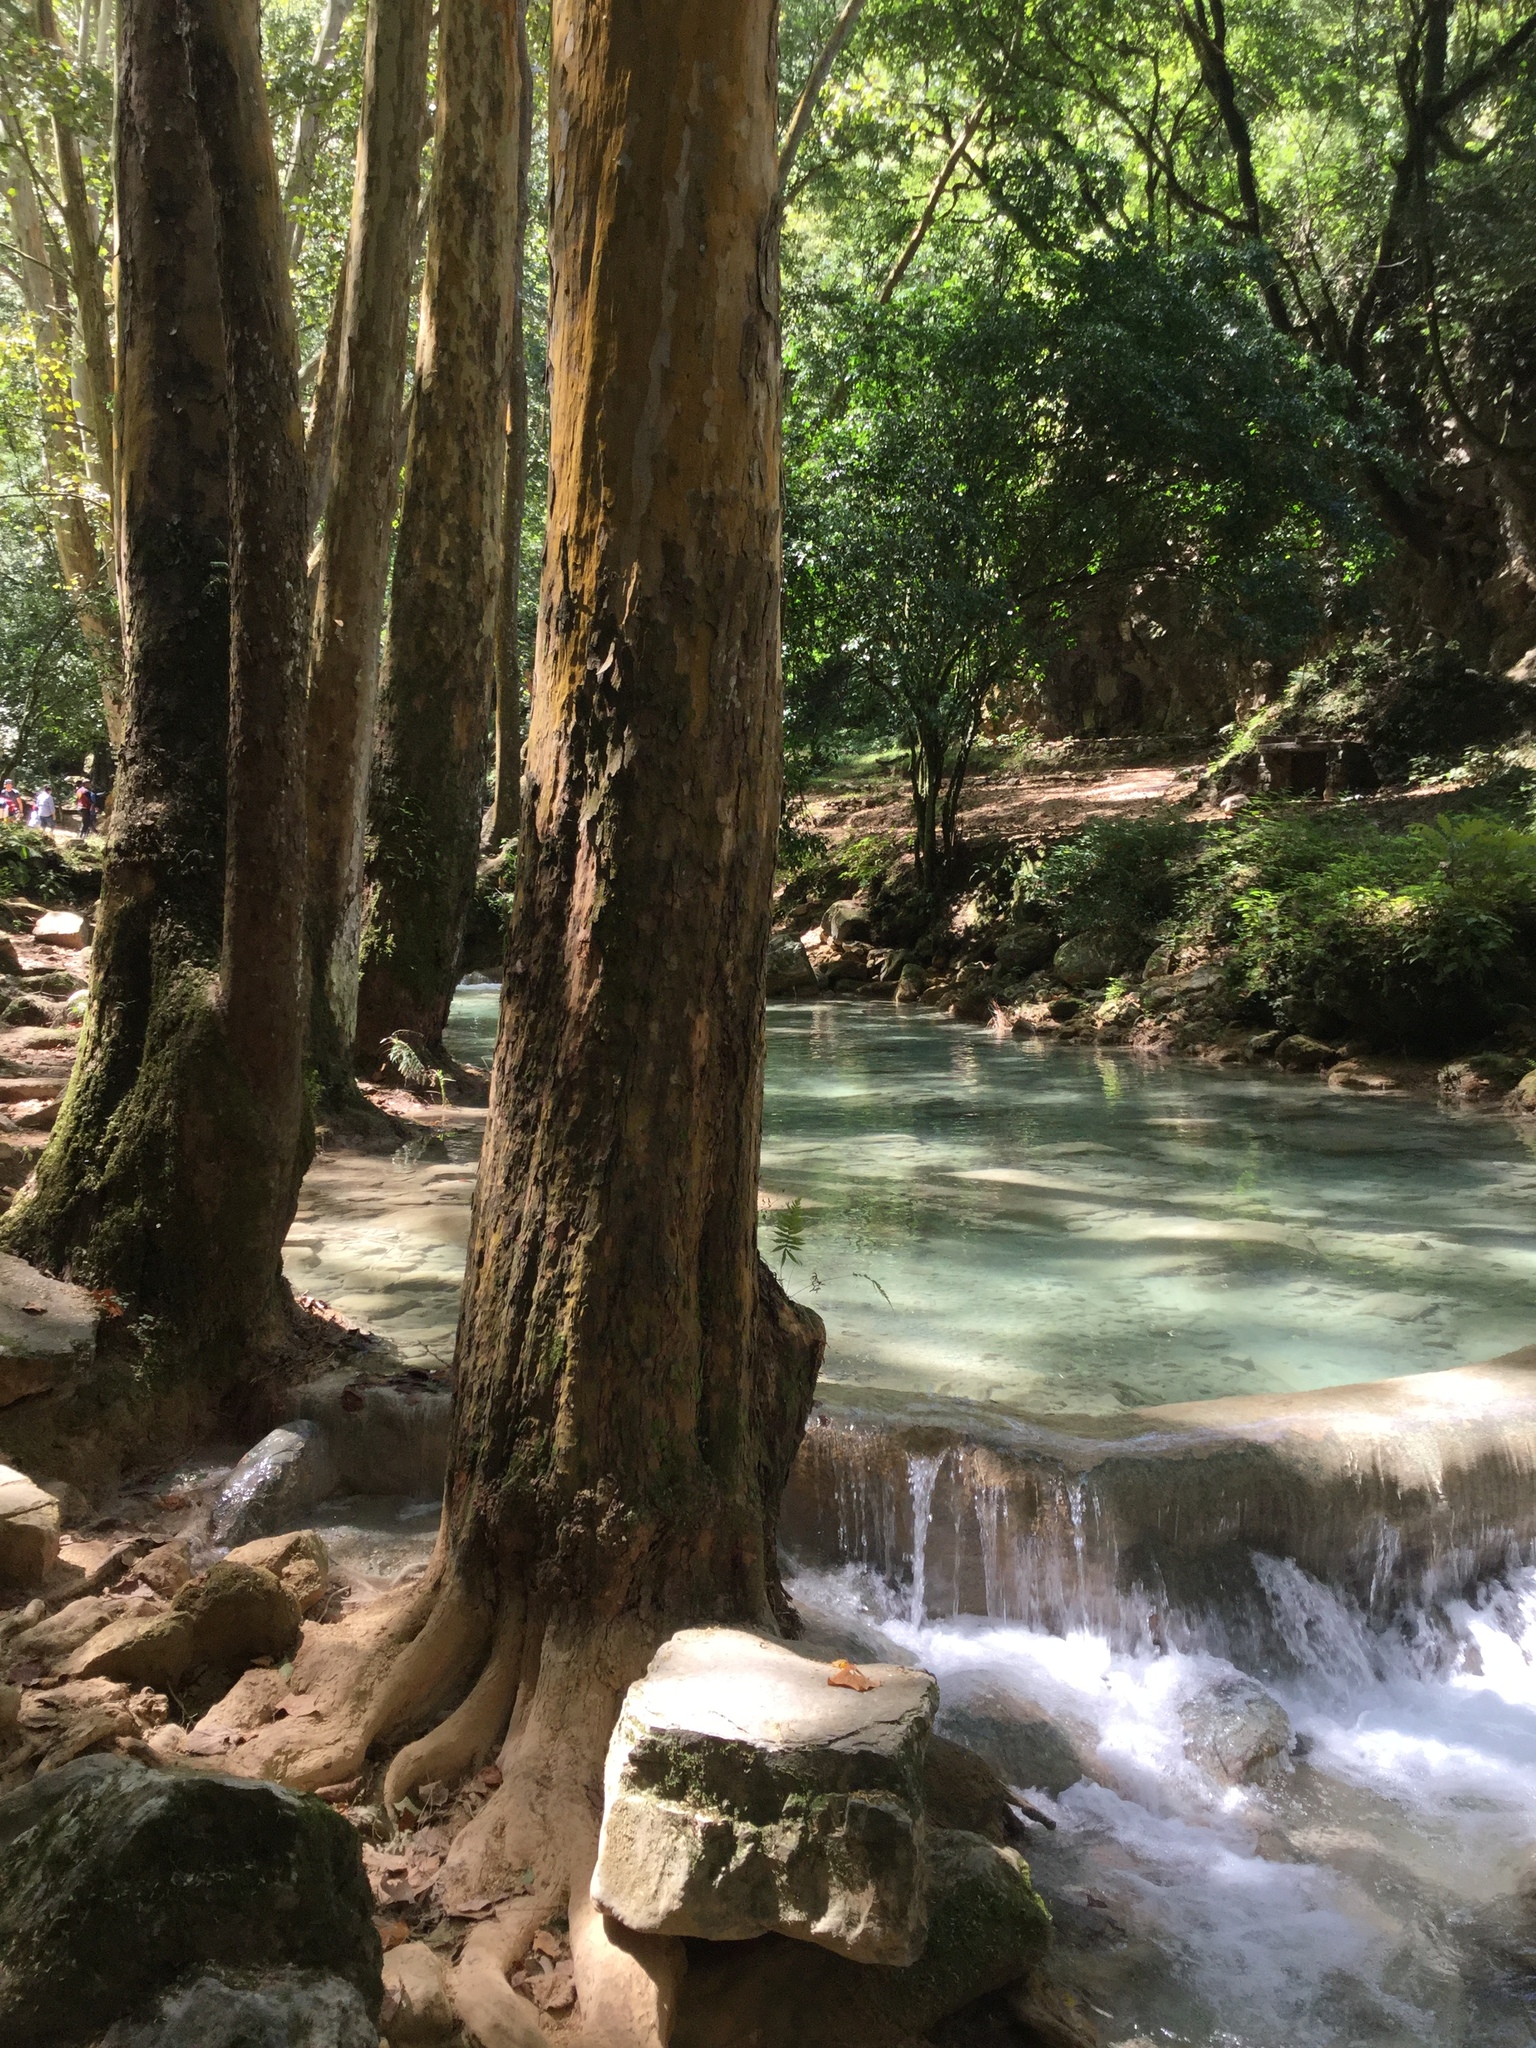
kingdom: Plantae
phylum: Tracheophyta
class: Magnoliopsida
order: Proteales
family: Platanaceae
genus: Platanus
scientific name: Platanus mexicana
